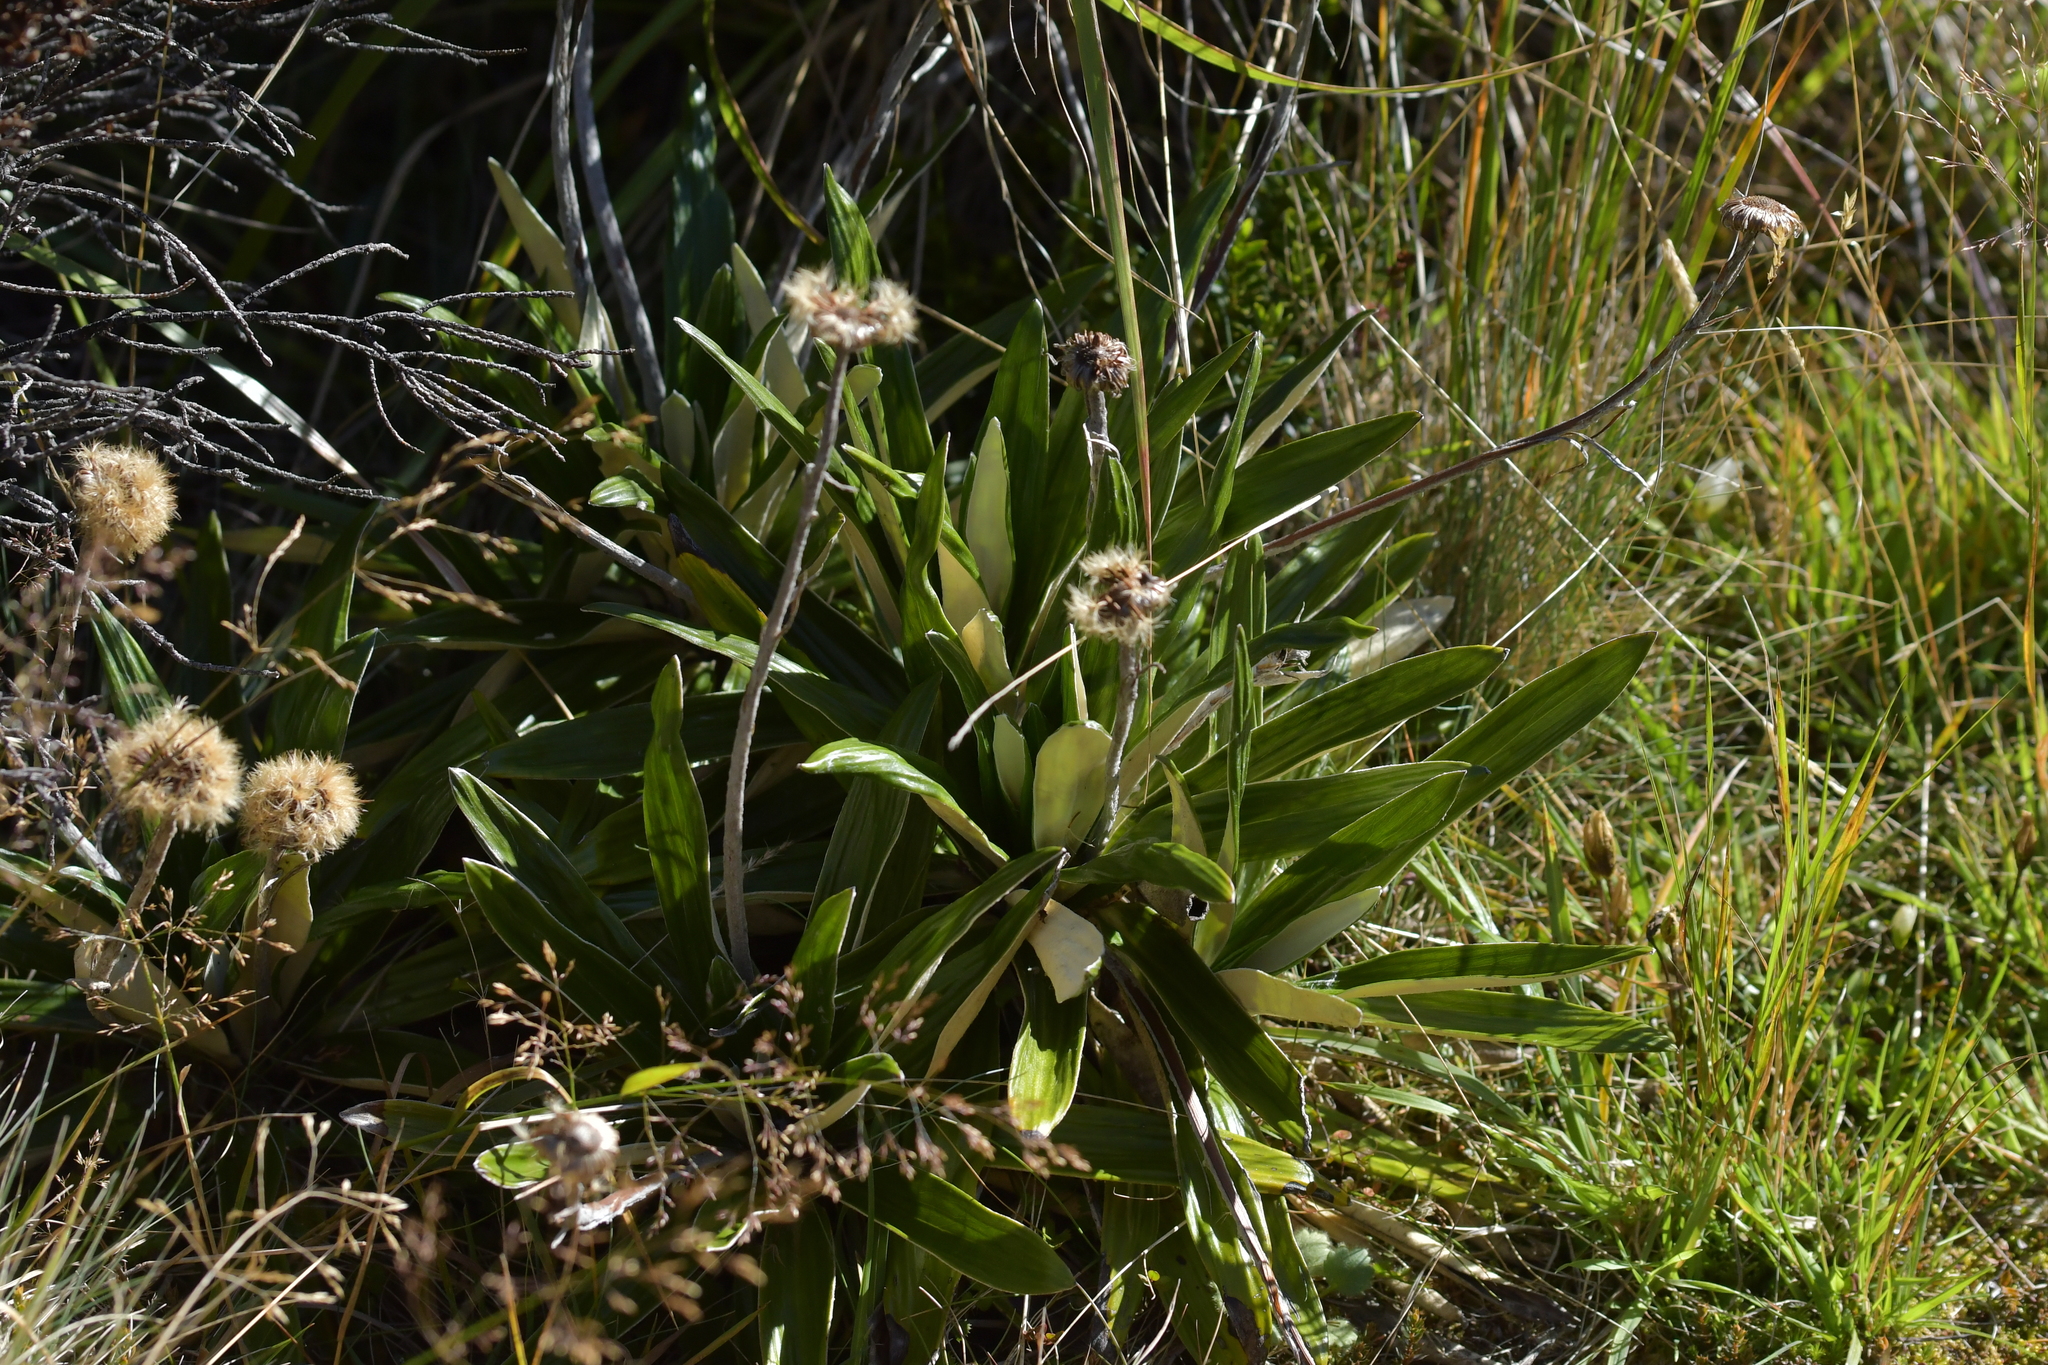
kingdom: Plantae
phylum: Tracheophyta
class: Magnoliopsida
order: Asterales
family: Asteraceae
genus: Celmisia
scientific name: Celmisia spectabilis
